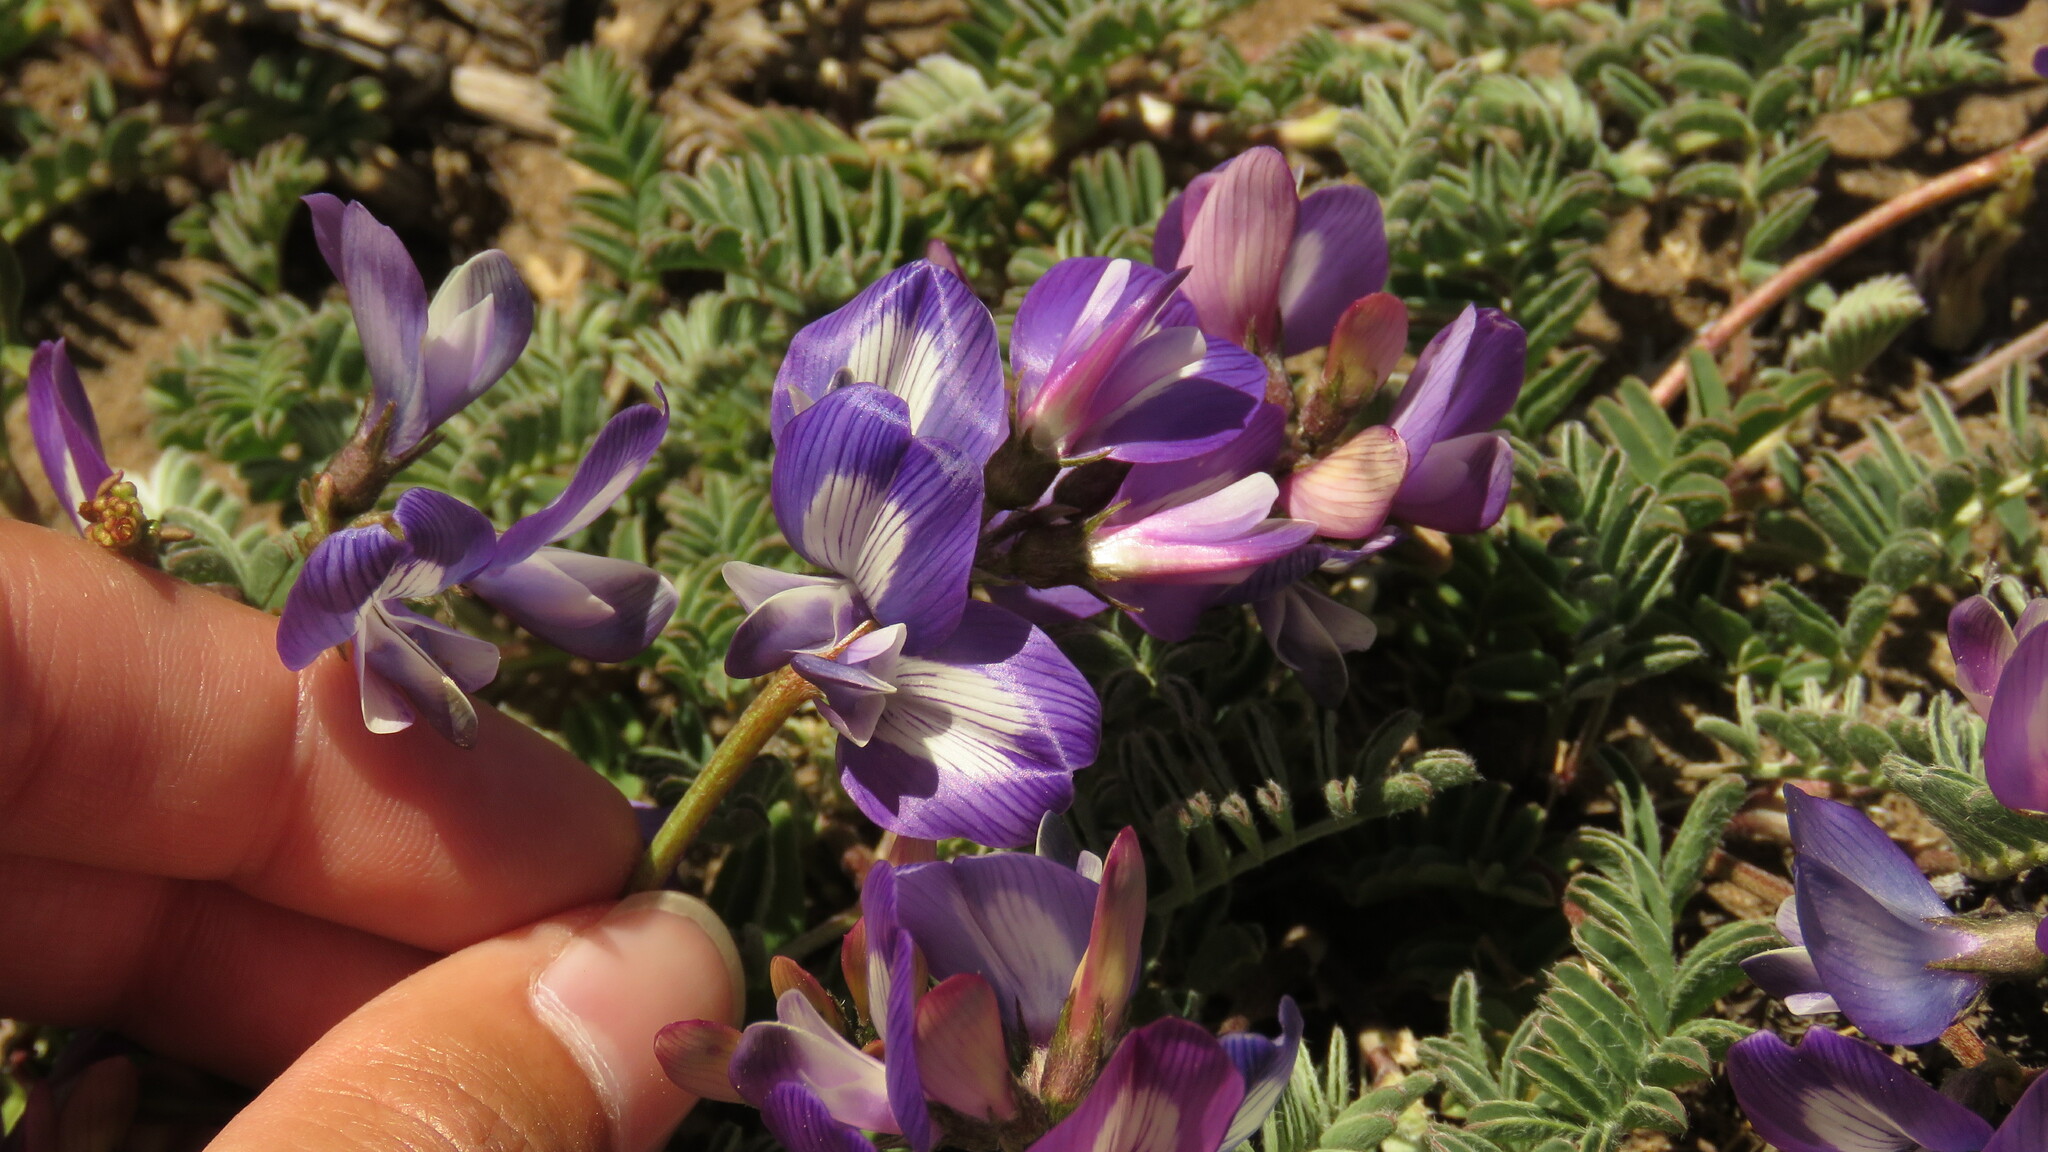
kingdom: Plantae
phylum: Tracheophyta
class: Magnoliopsida
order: Fabales
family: Fabaceae
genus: Astragalus
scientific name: Astragalus palenae
